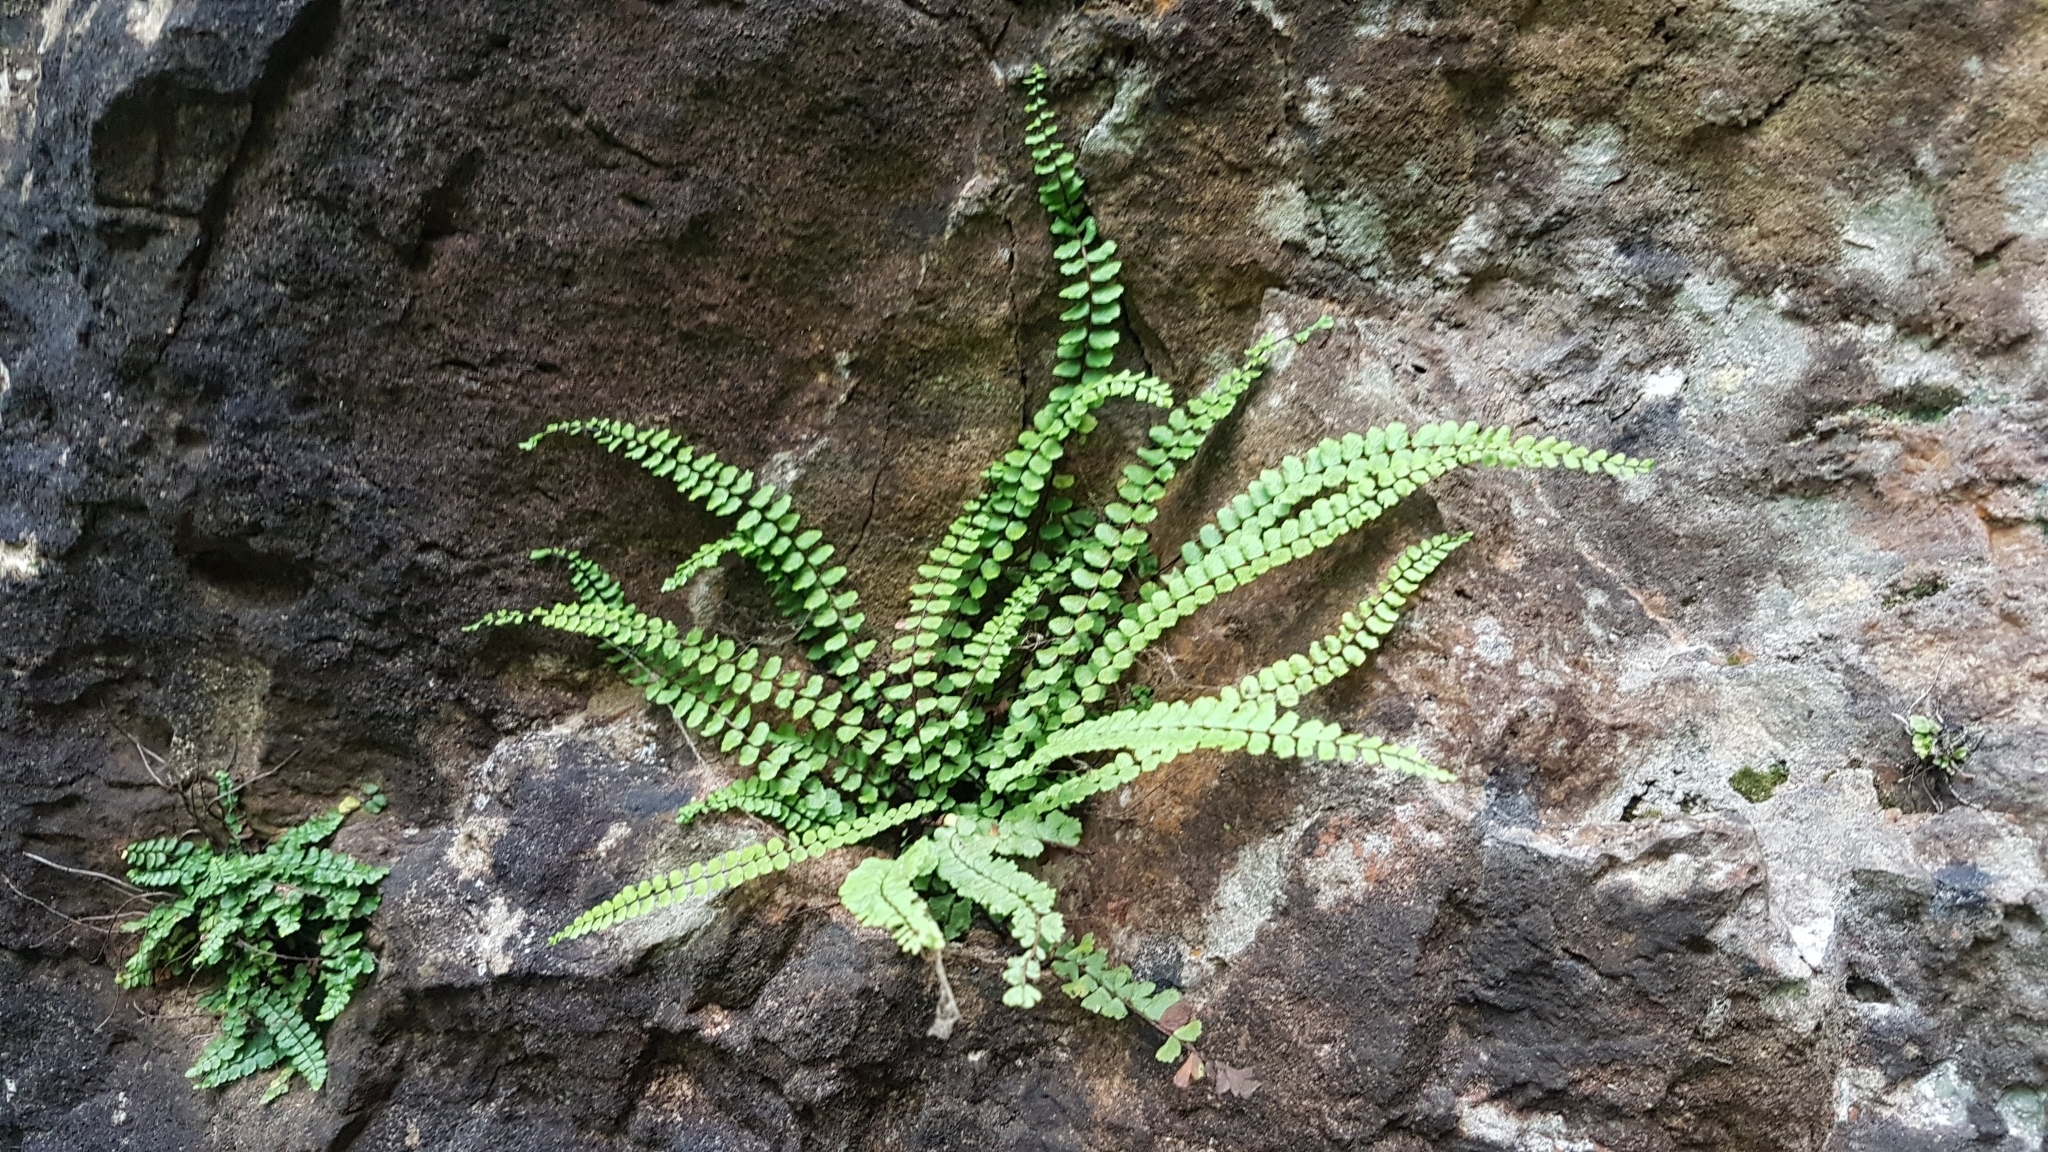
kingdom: Plantae
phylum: Tracheophyta
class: Polypodiopsida
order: Polypodiales
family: Aspleniaceae
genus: Asplenium
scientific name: Asplenium trichomanes
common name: Maidenhair spleenwort
